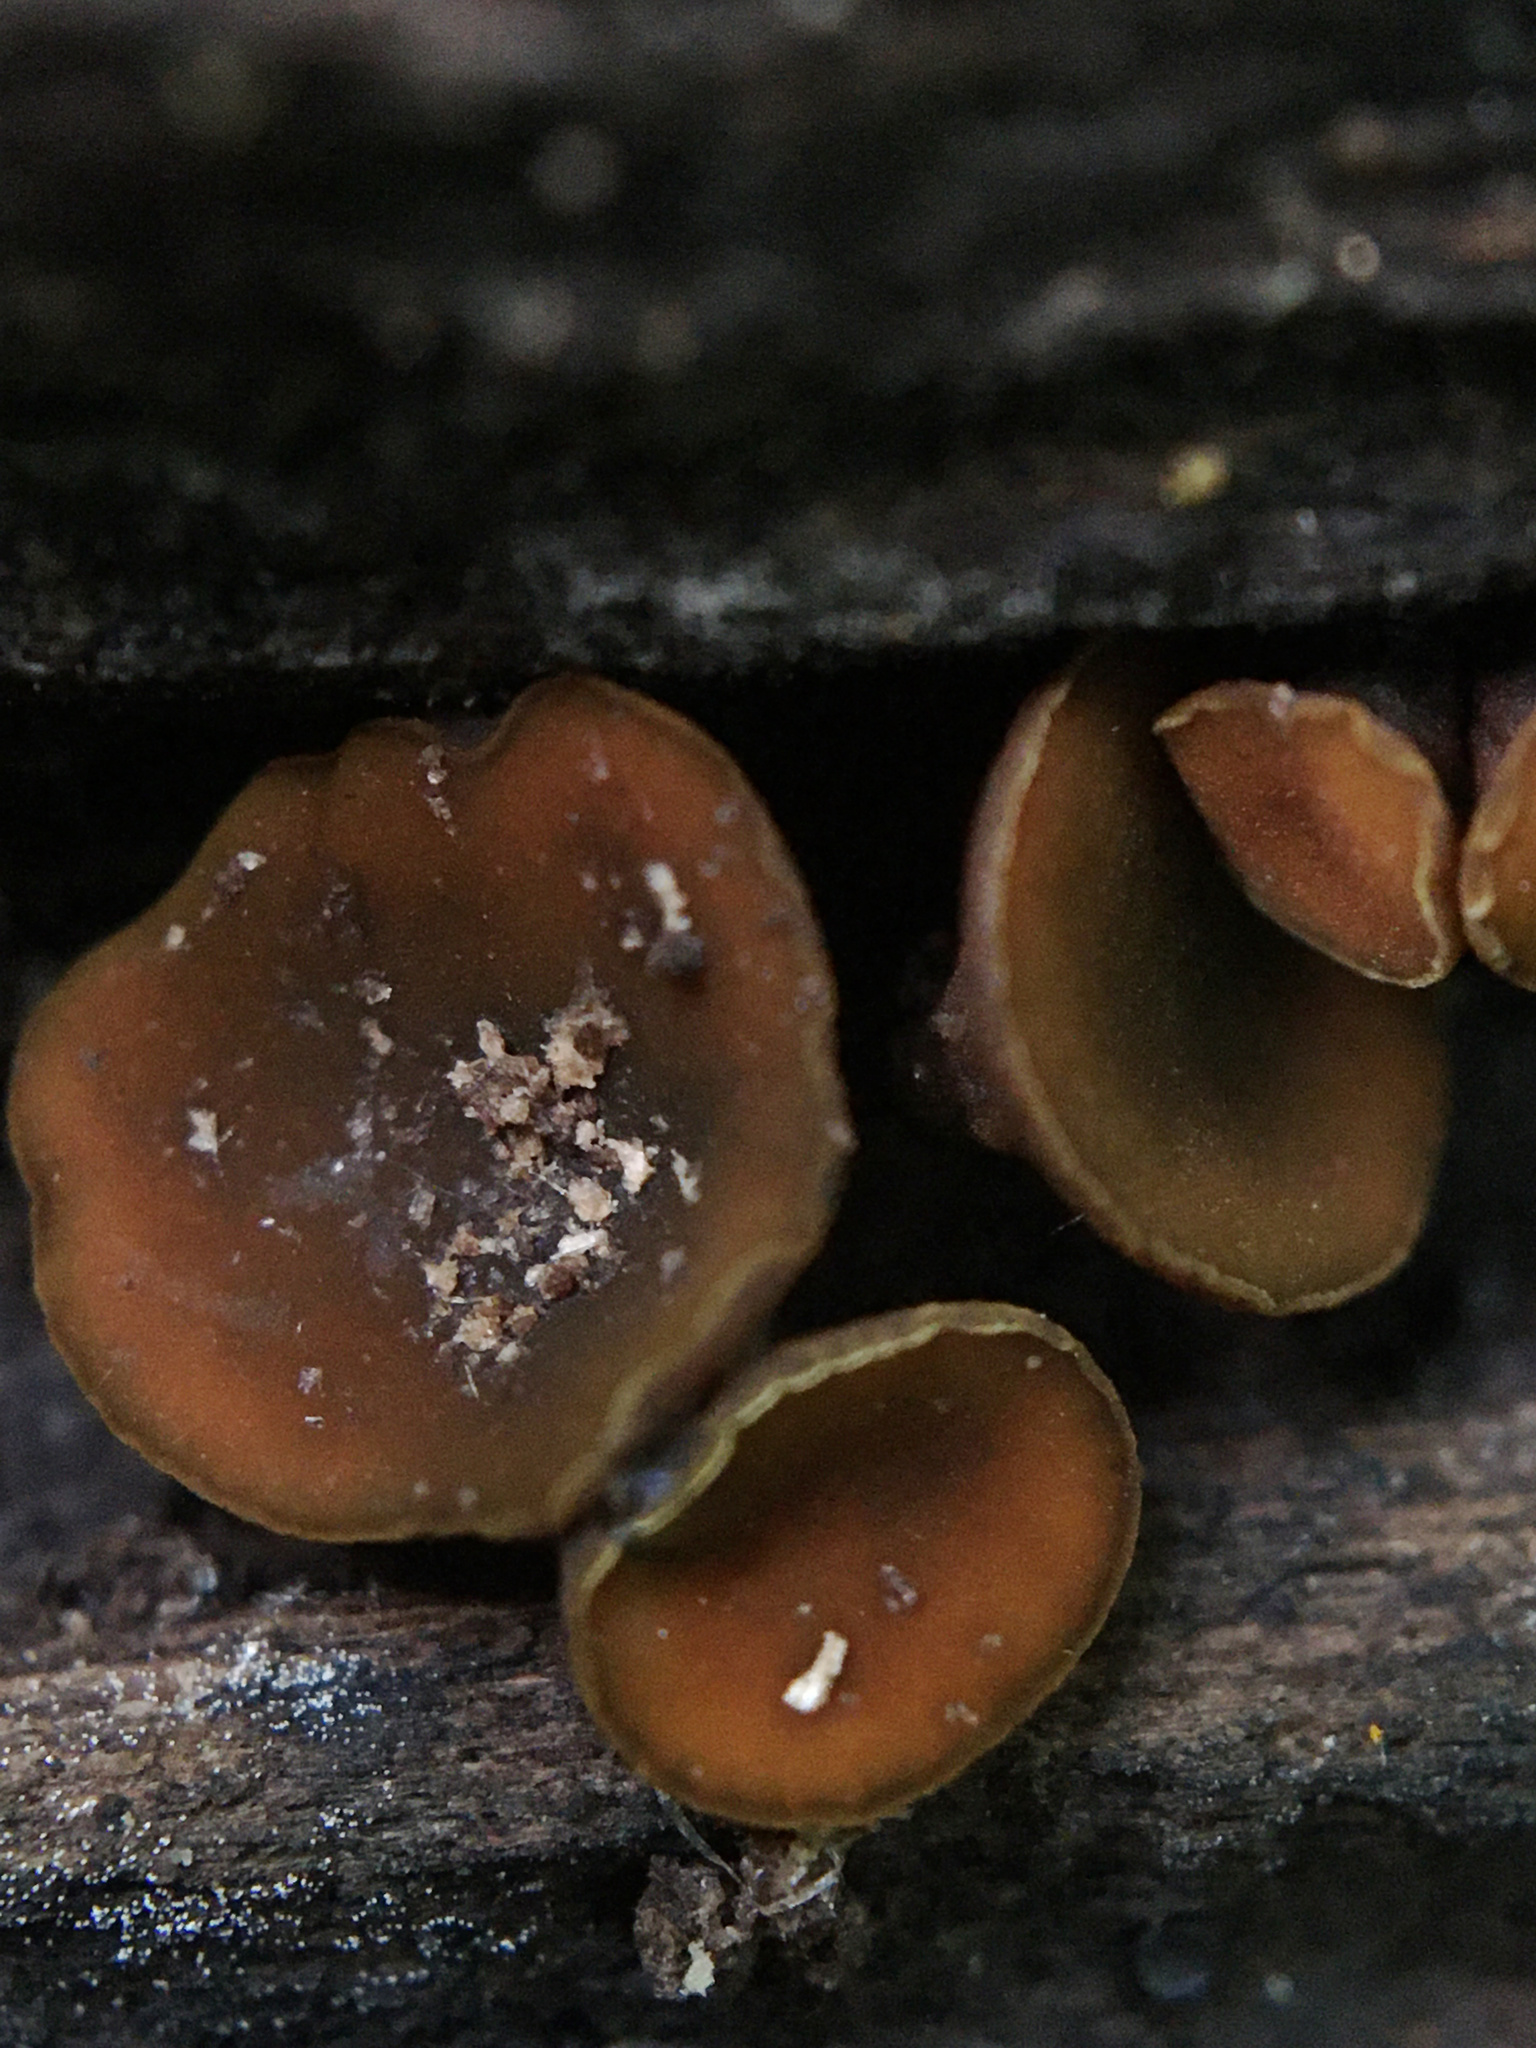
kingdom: Fungi
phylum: Ascomycota
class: Leotiomycetes
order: Helotiales
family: Cenangiaceae
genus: Chlorencoelia
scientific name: Chlorencoelia
